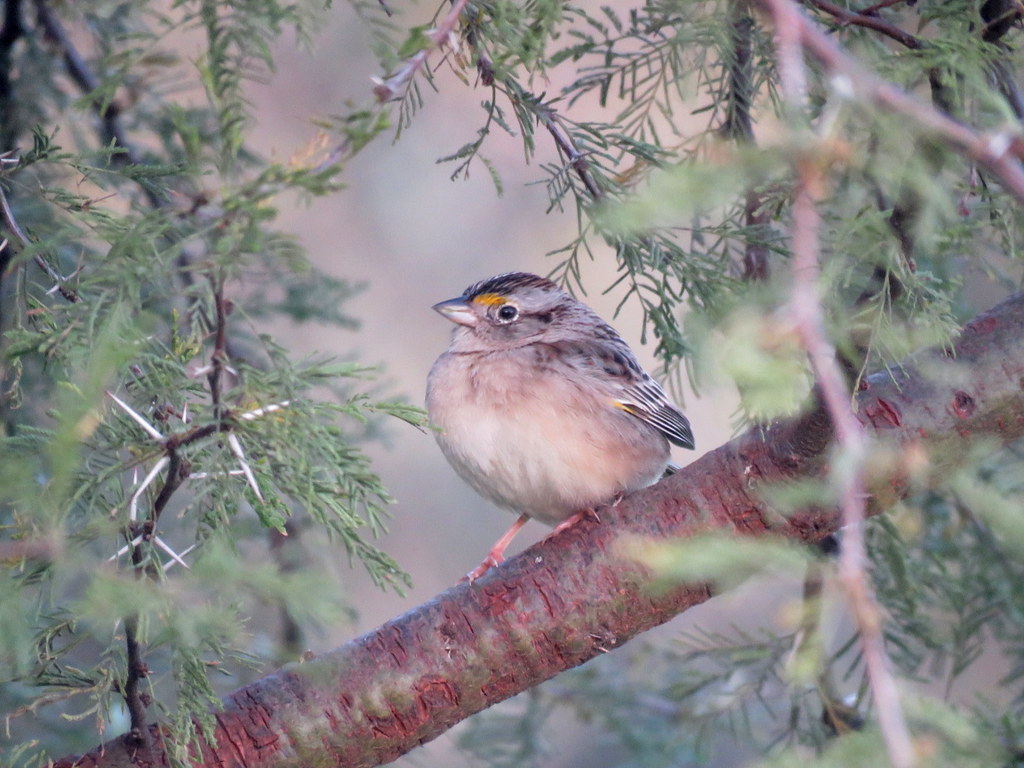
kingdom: Animalia
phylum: Chordata
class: Aves
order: Passeriformes
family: Passerellidae
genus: Ammodramus
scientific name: Ammodramus humeralis
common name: Grassland sparrow
